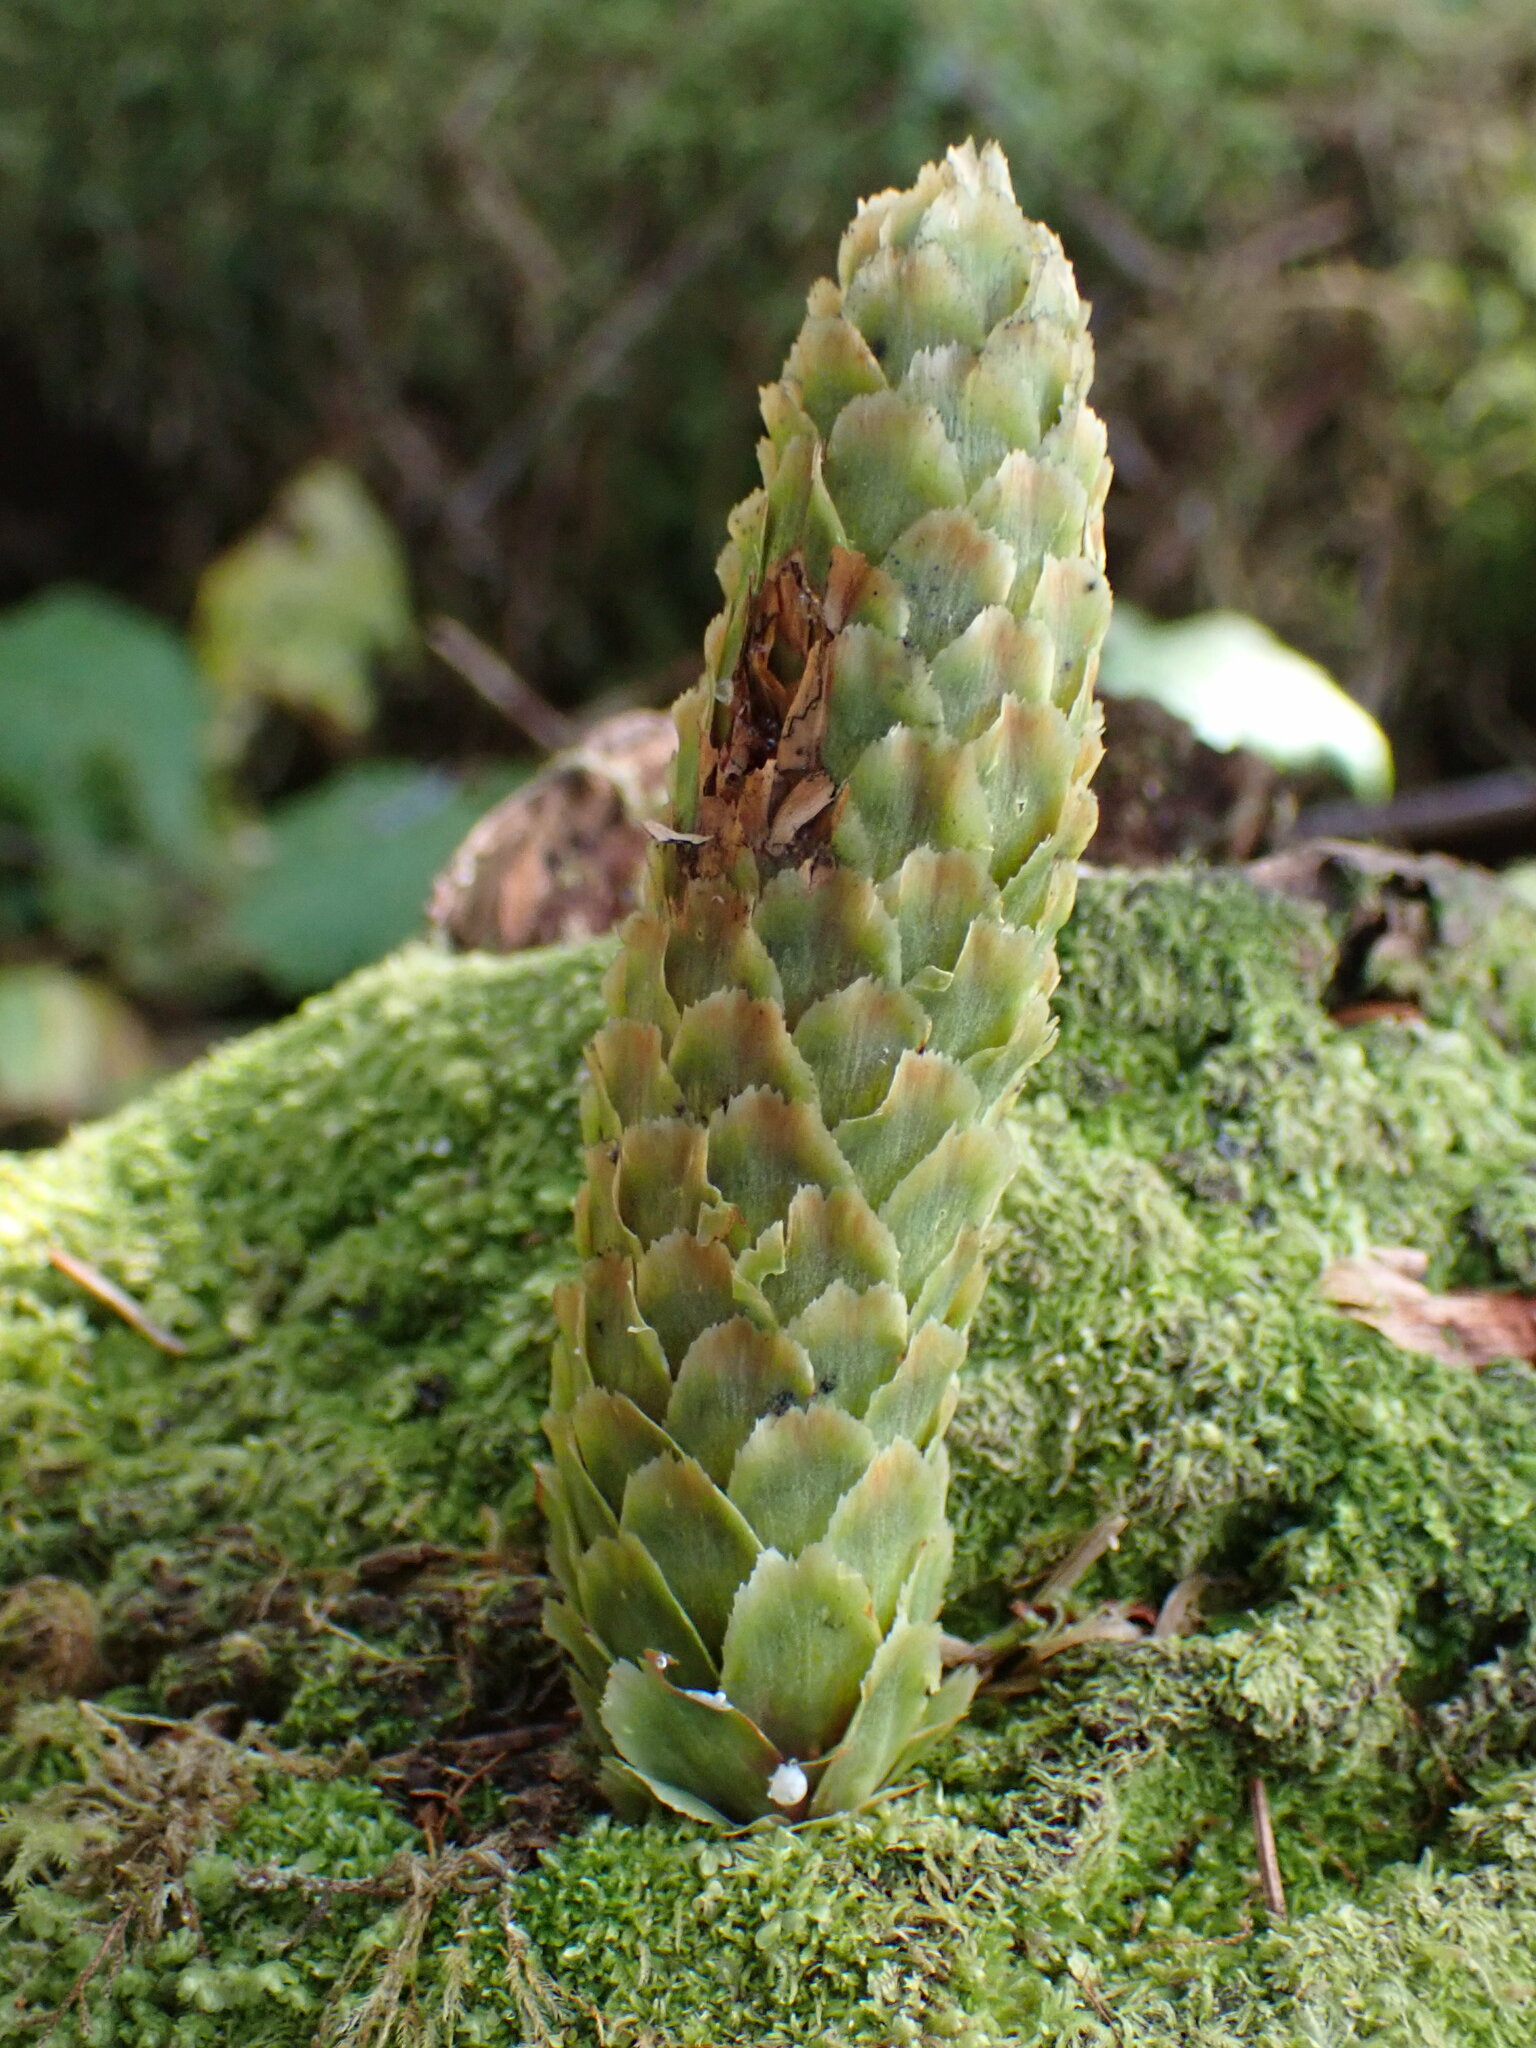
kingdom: Plantae
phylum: Tracheophyta
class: Pinopsida
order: Pinales
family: Pinaceae
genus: Picea
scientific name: Picea sitchensis
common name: Sitka spruce
